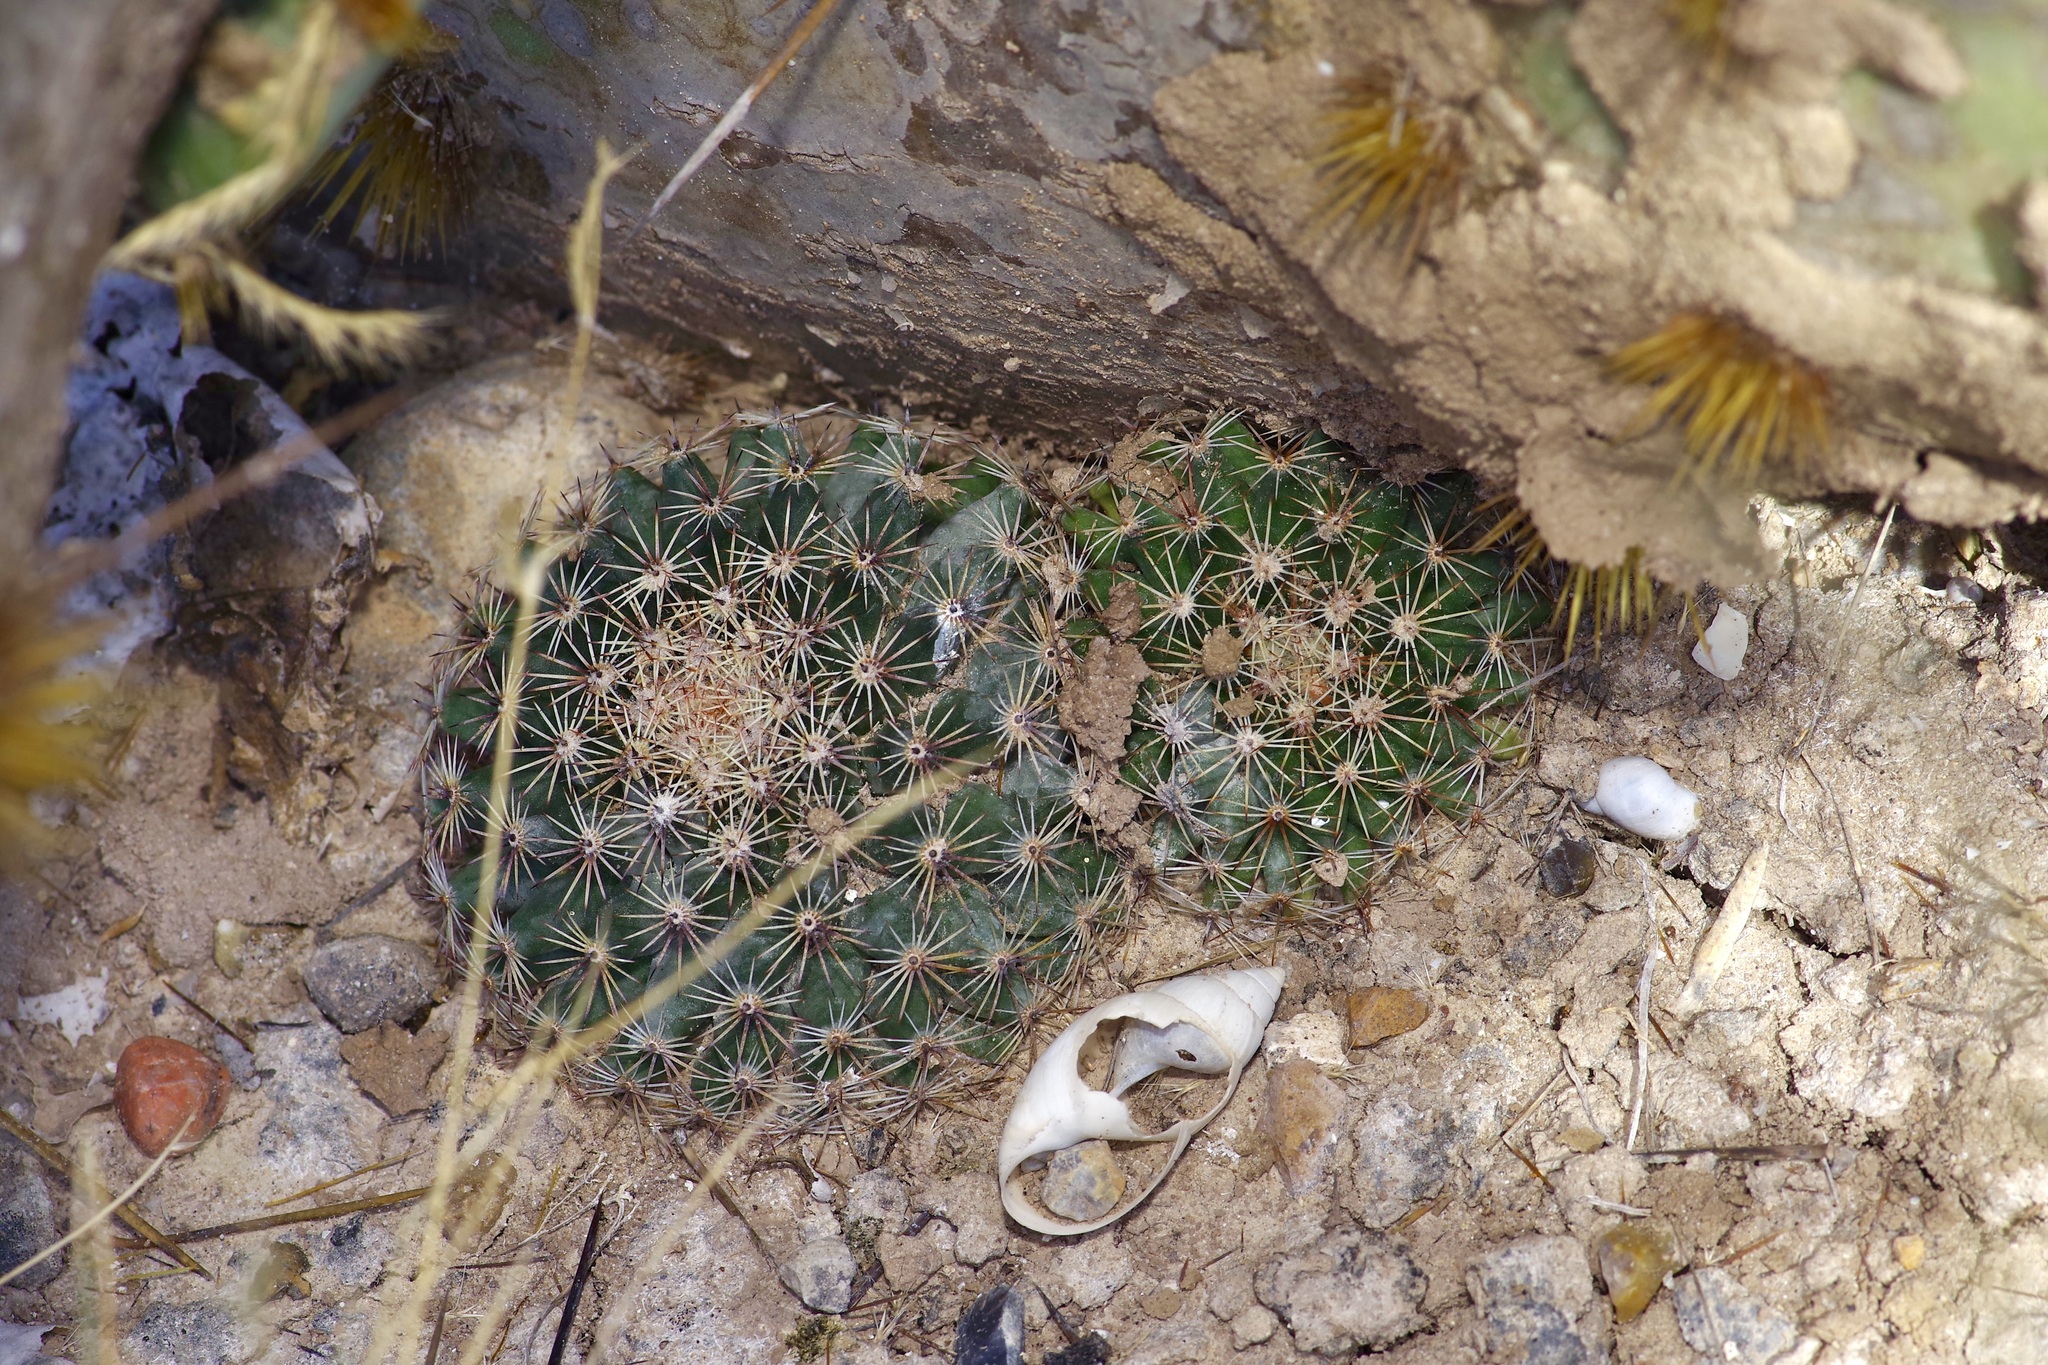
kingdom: Plantae
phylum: Tracheophyta
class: Magnoliopsida
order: Caryophyllales
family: Cactaceae
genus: Mammillaria
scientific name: Mammillaria heyderi
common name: Little nipple cactus
